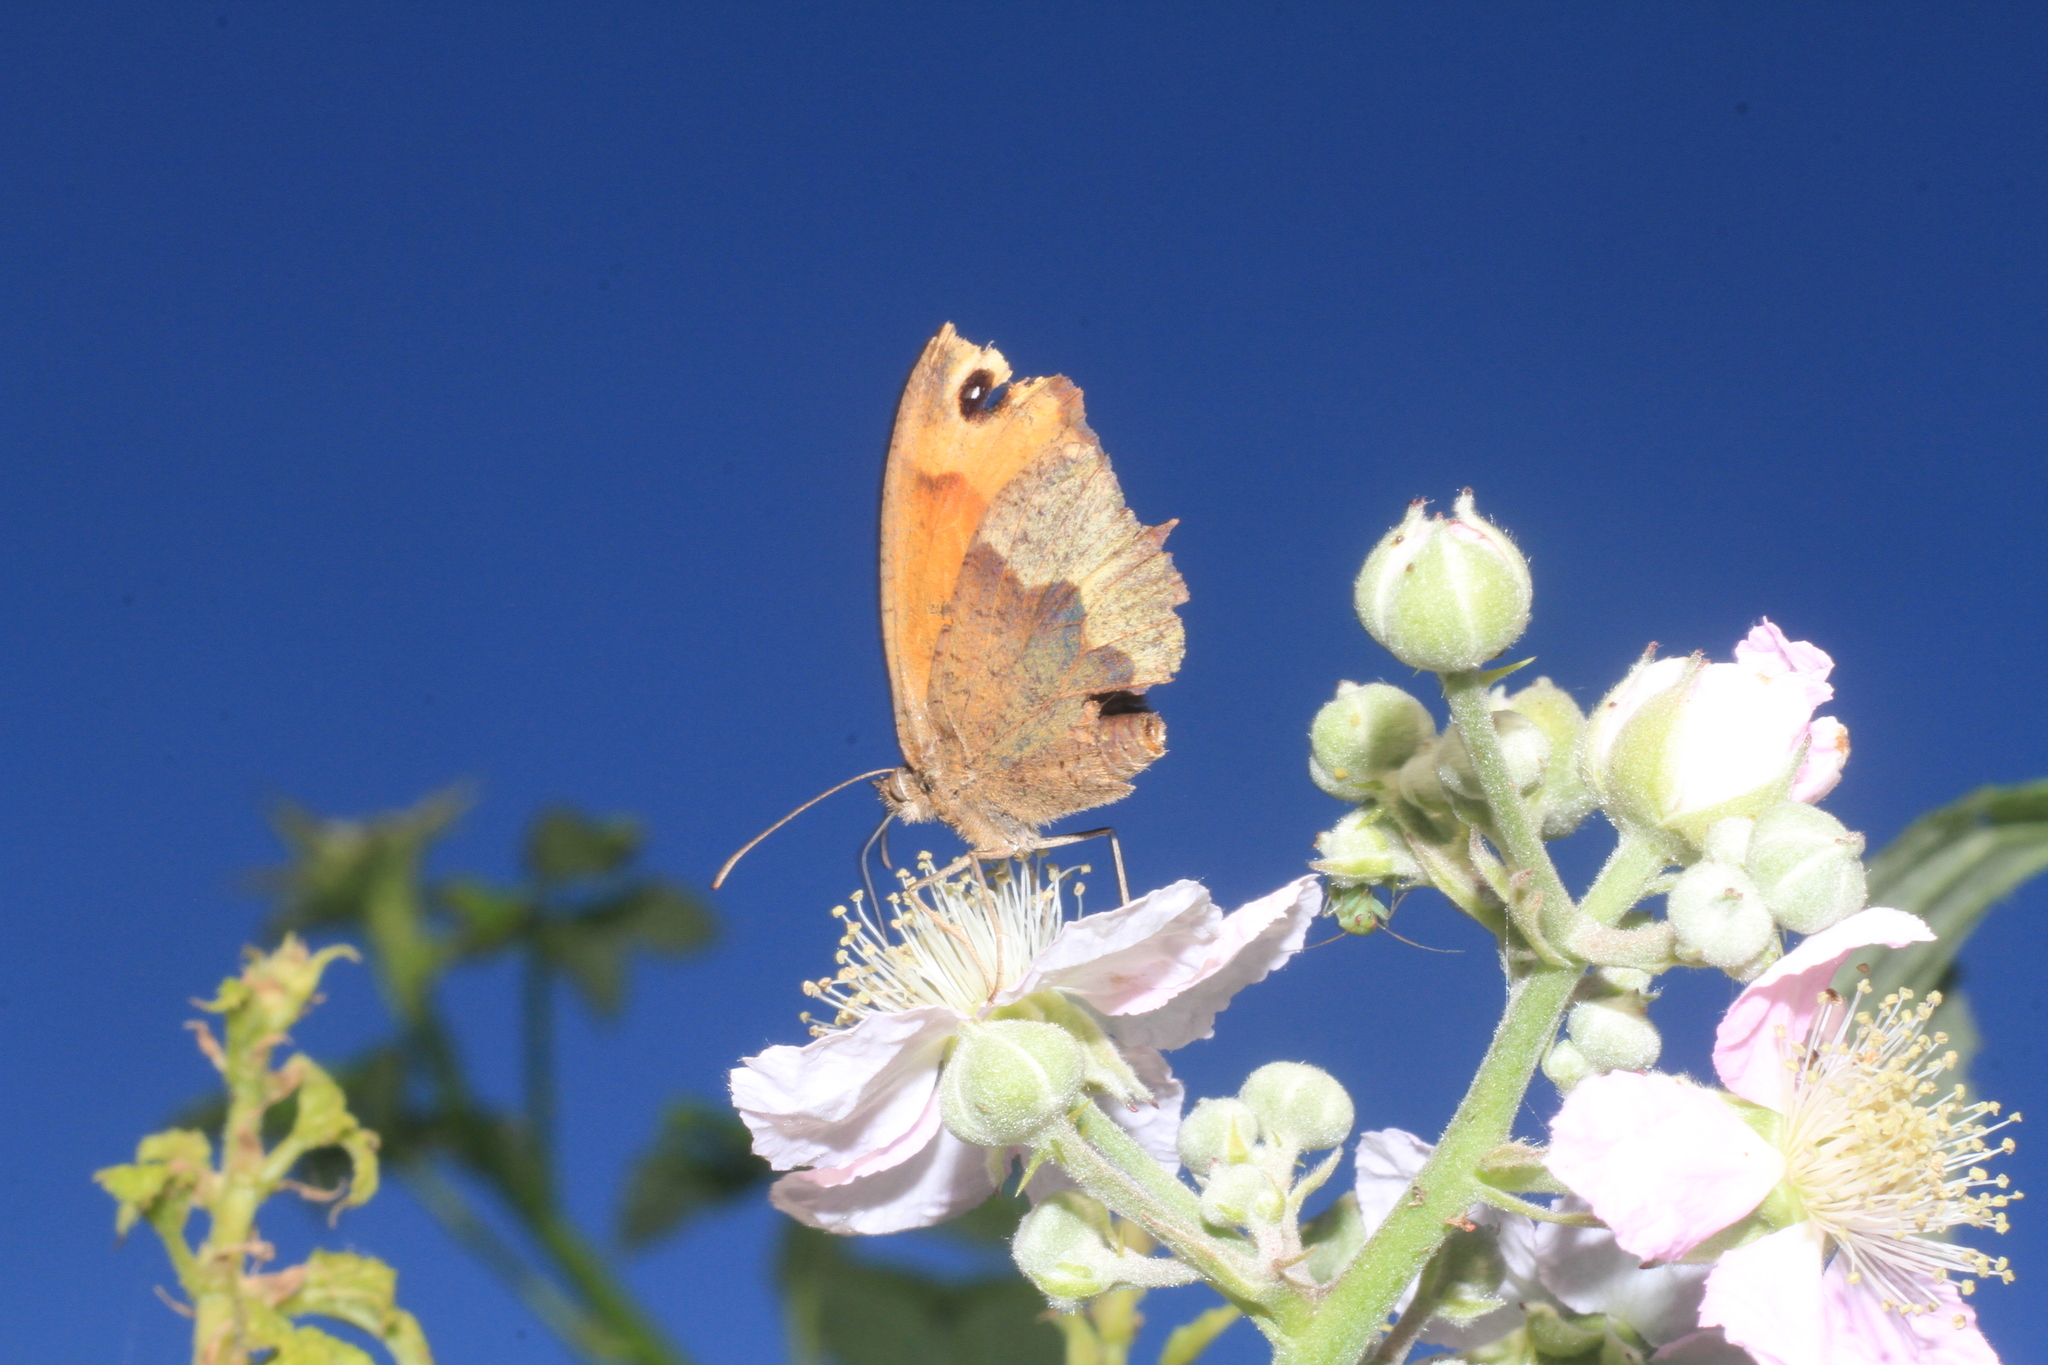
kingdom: Animalia
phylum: Arthropoda
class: Insecta
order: Lepidoptera
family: Nymphalidae
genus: Maniola
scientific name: Maniola jurtina
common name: Meadow brown
